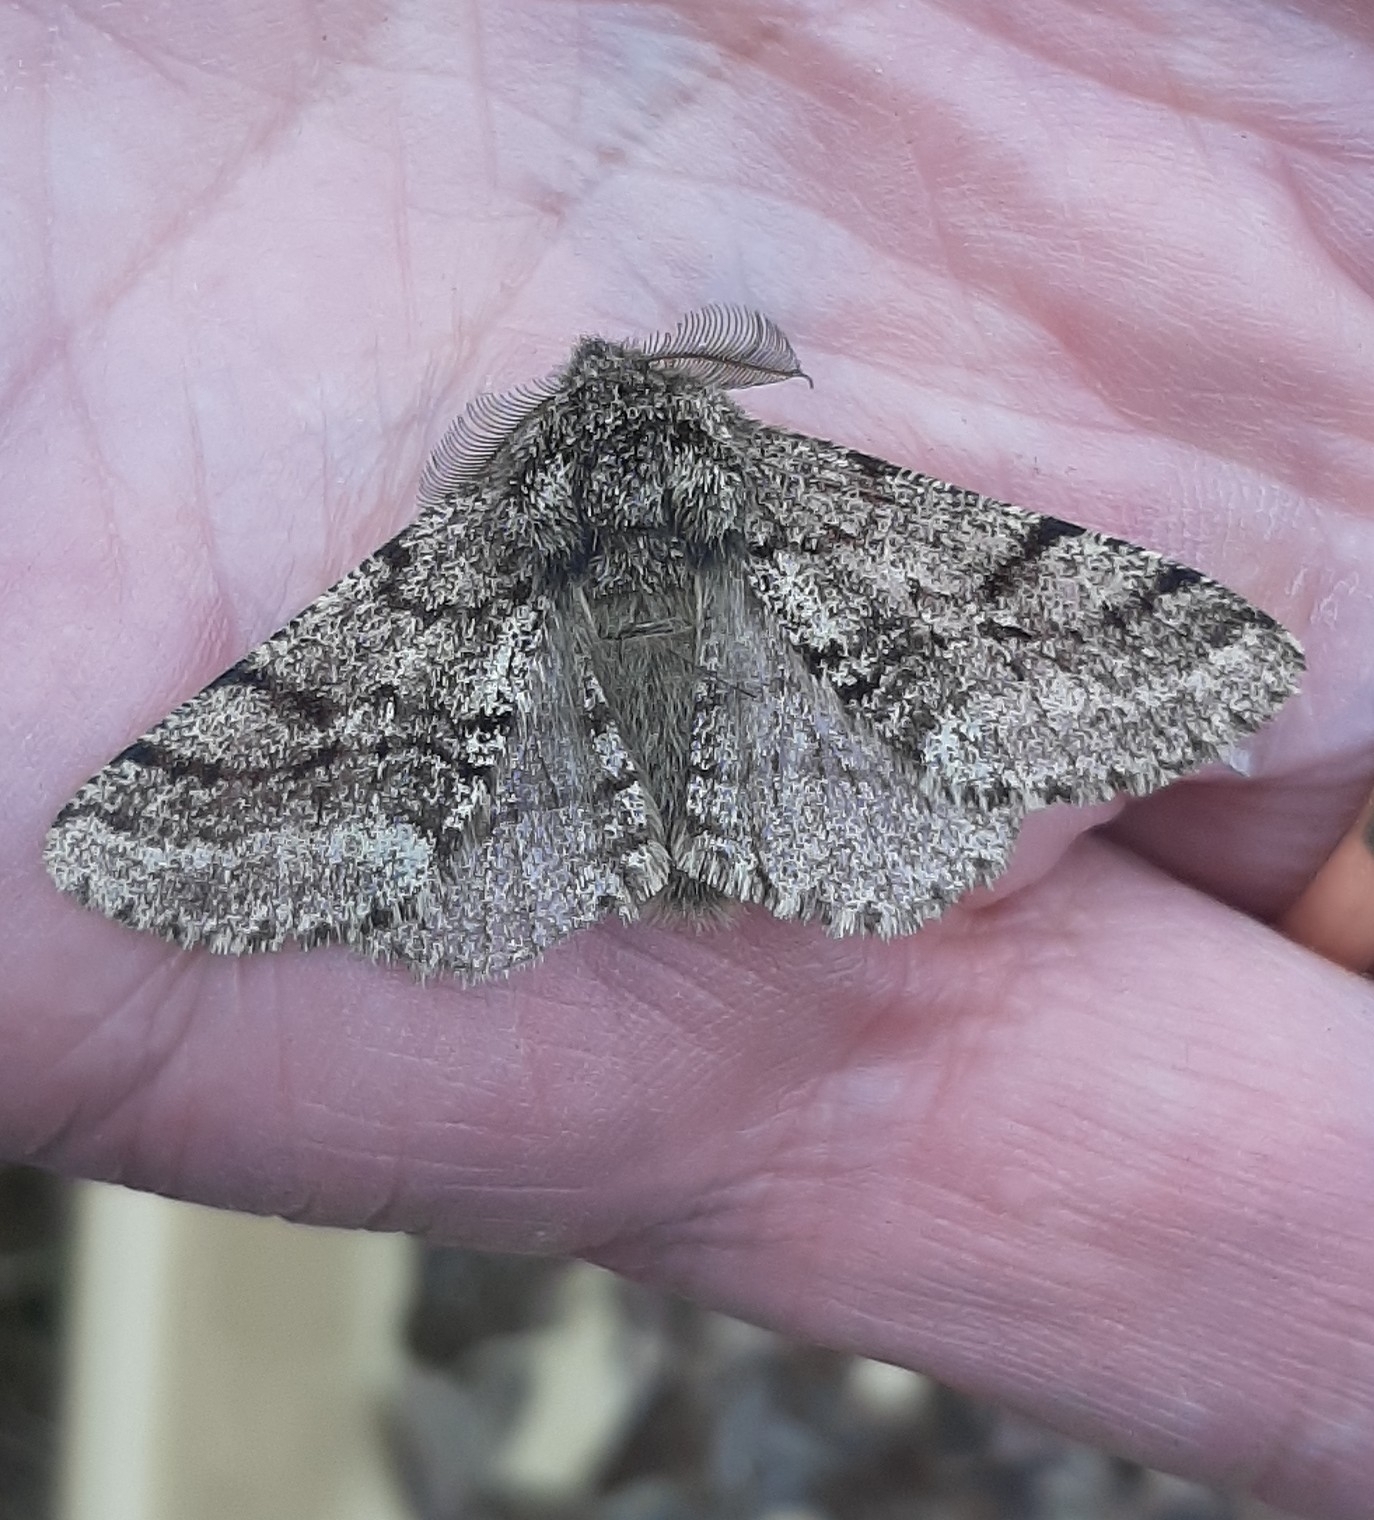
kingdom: Animalia
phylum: Arthropoda
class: Insecta
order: Lepidoptera
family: Geometridae
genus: Lycia
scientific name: Lycia hirtaria
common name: Brindled beauty
